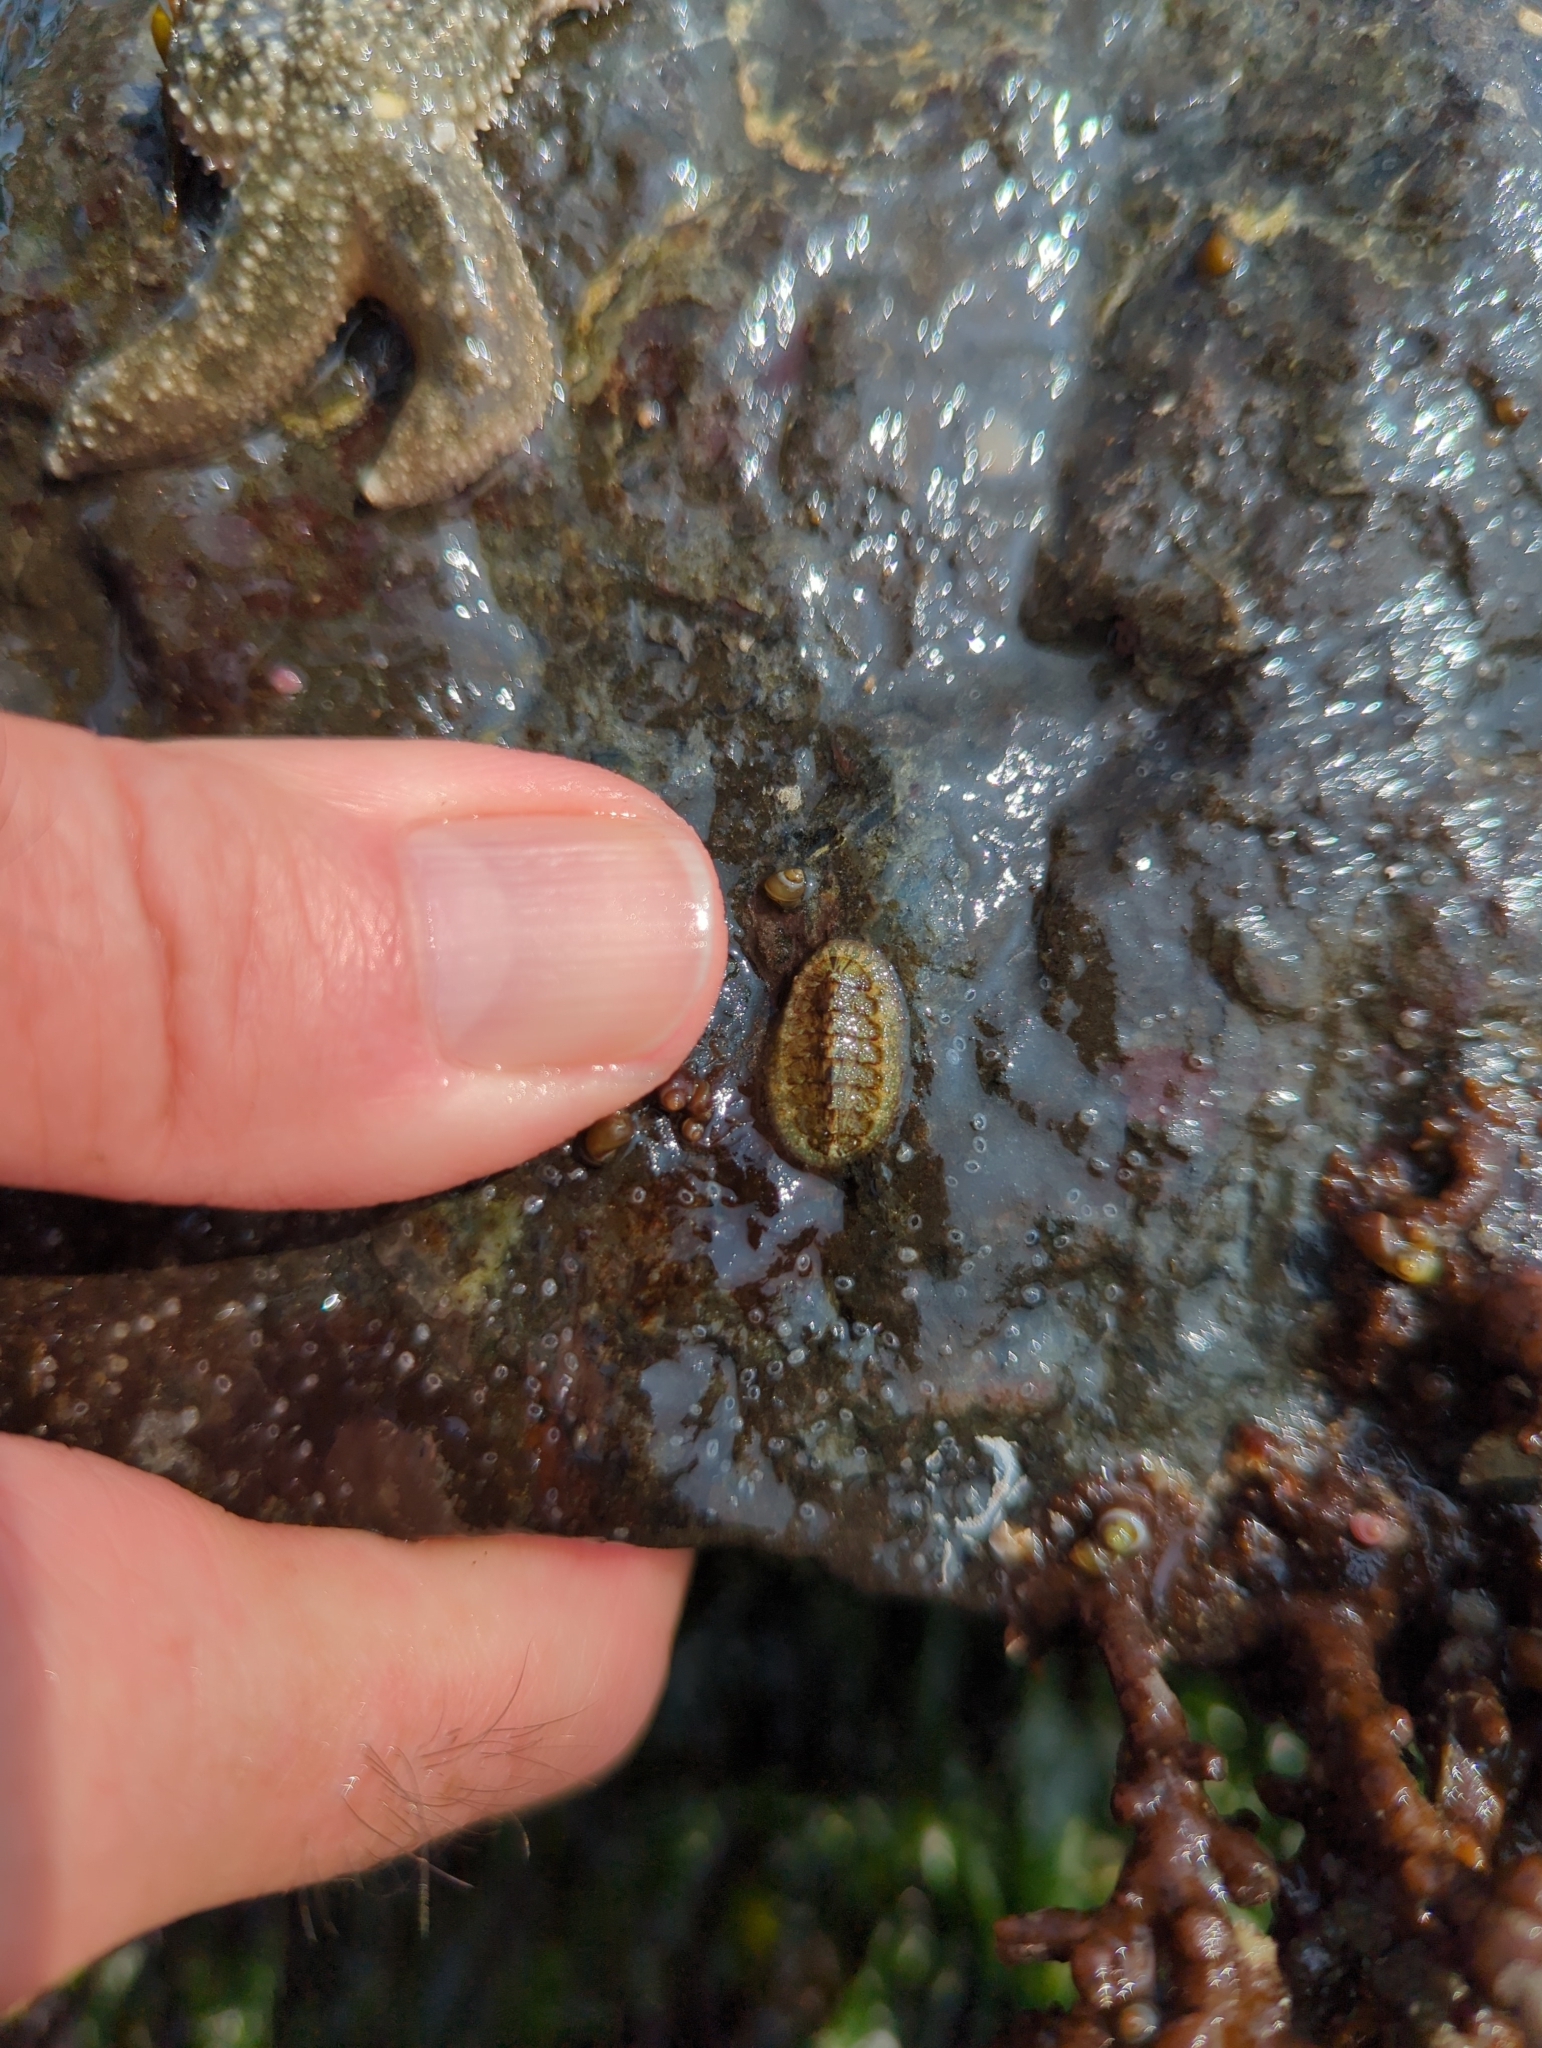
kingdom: Animalia
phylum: Mollusca
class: Polyplacophora
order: Chitonida
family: Tonicellidae
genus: Nuttallina
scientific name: Nuttallina californica
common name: California nuttall chiton
